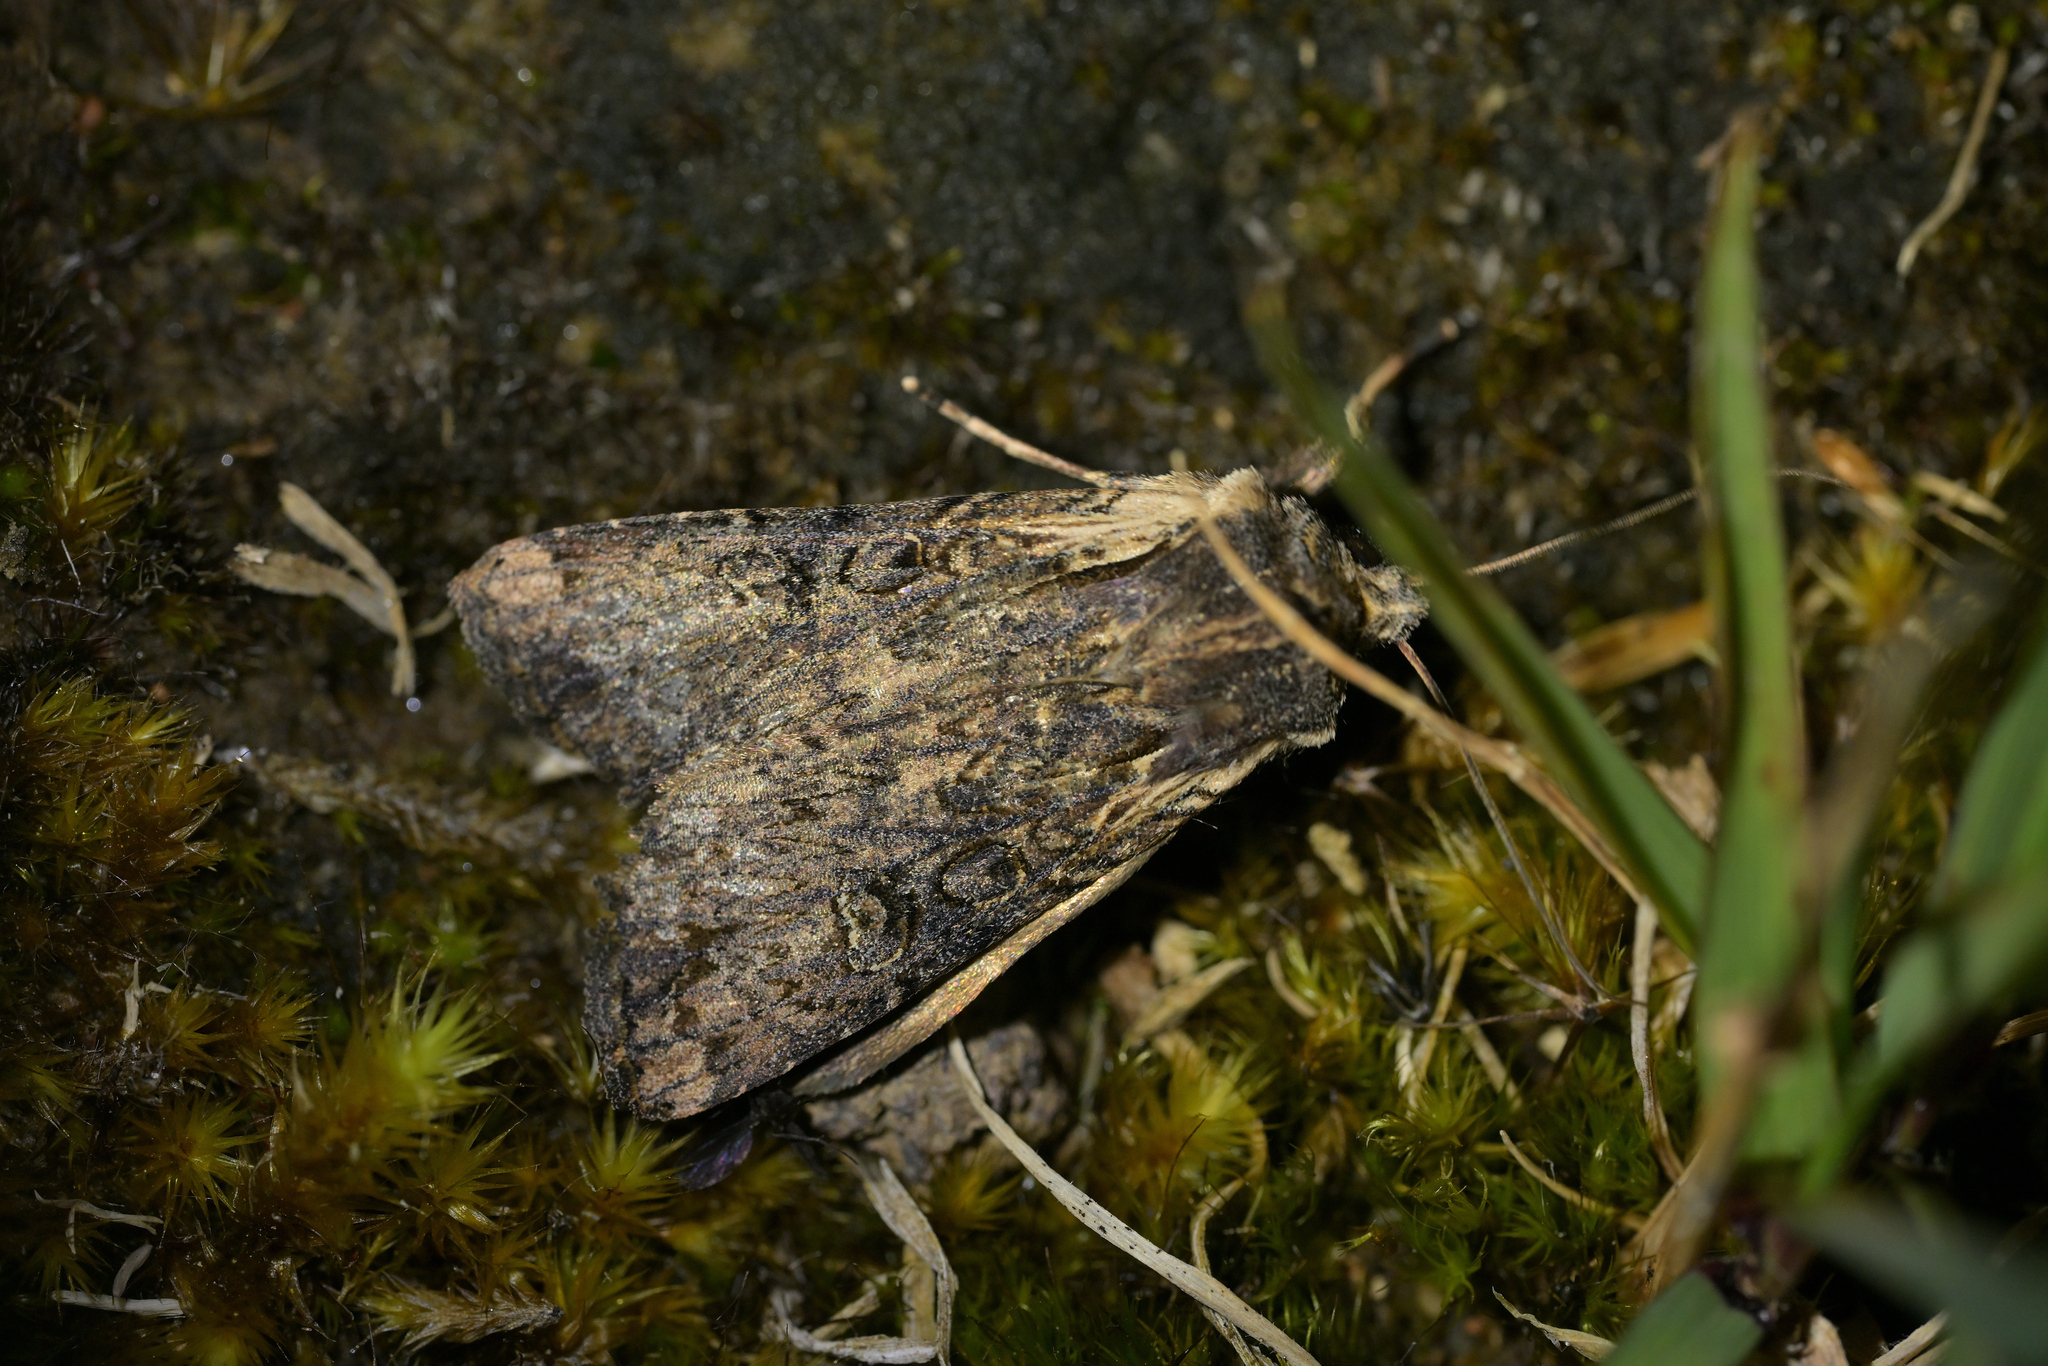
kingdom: Animalia
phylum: Arthropoda
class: Insecta
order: Lepidoptera
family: Noctuidae
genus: Ichneutica
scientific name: Ichneutica omoplaca
